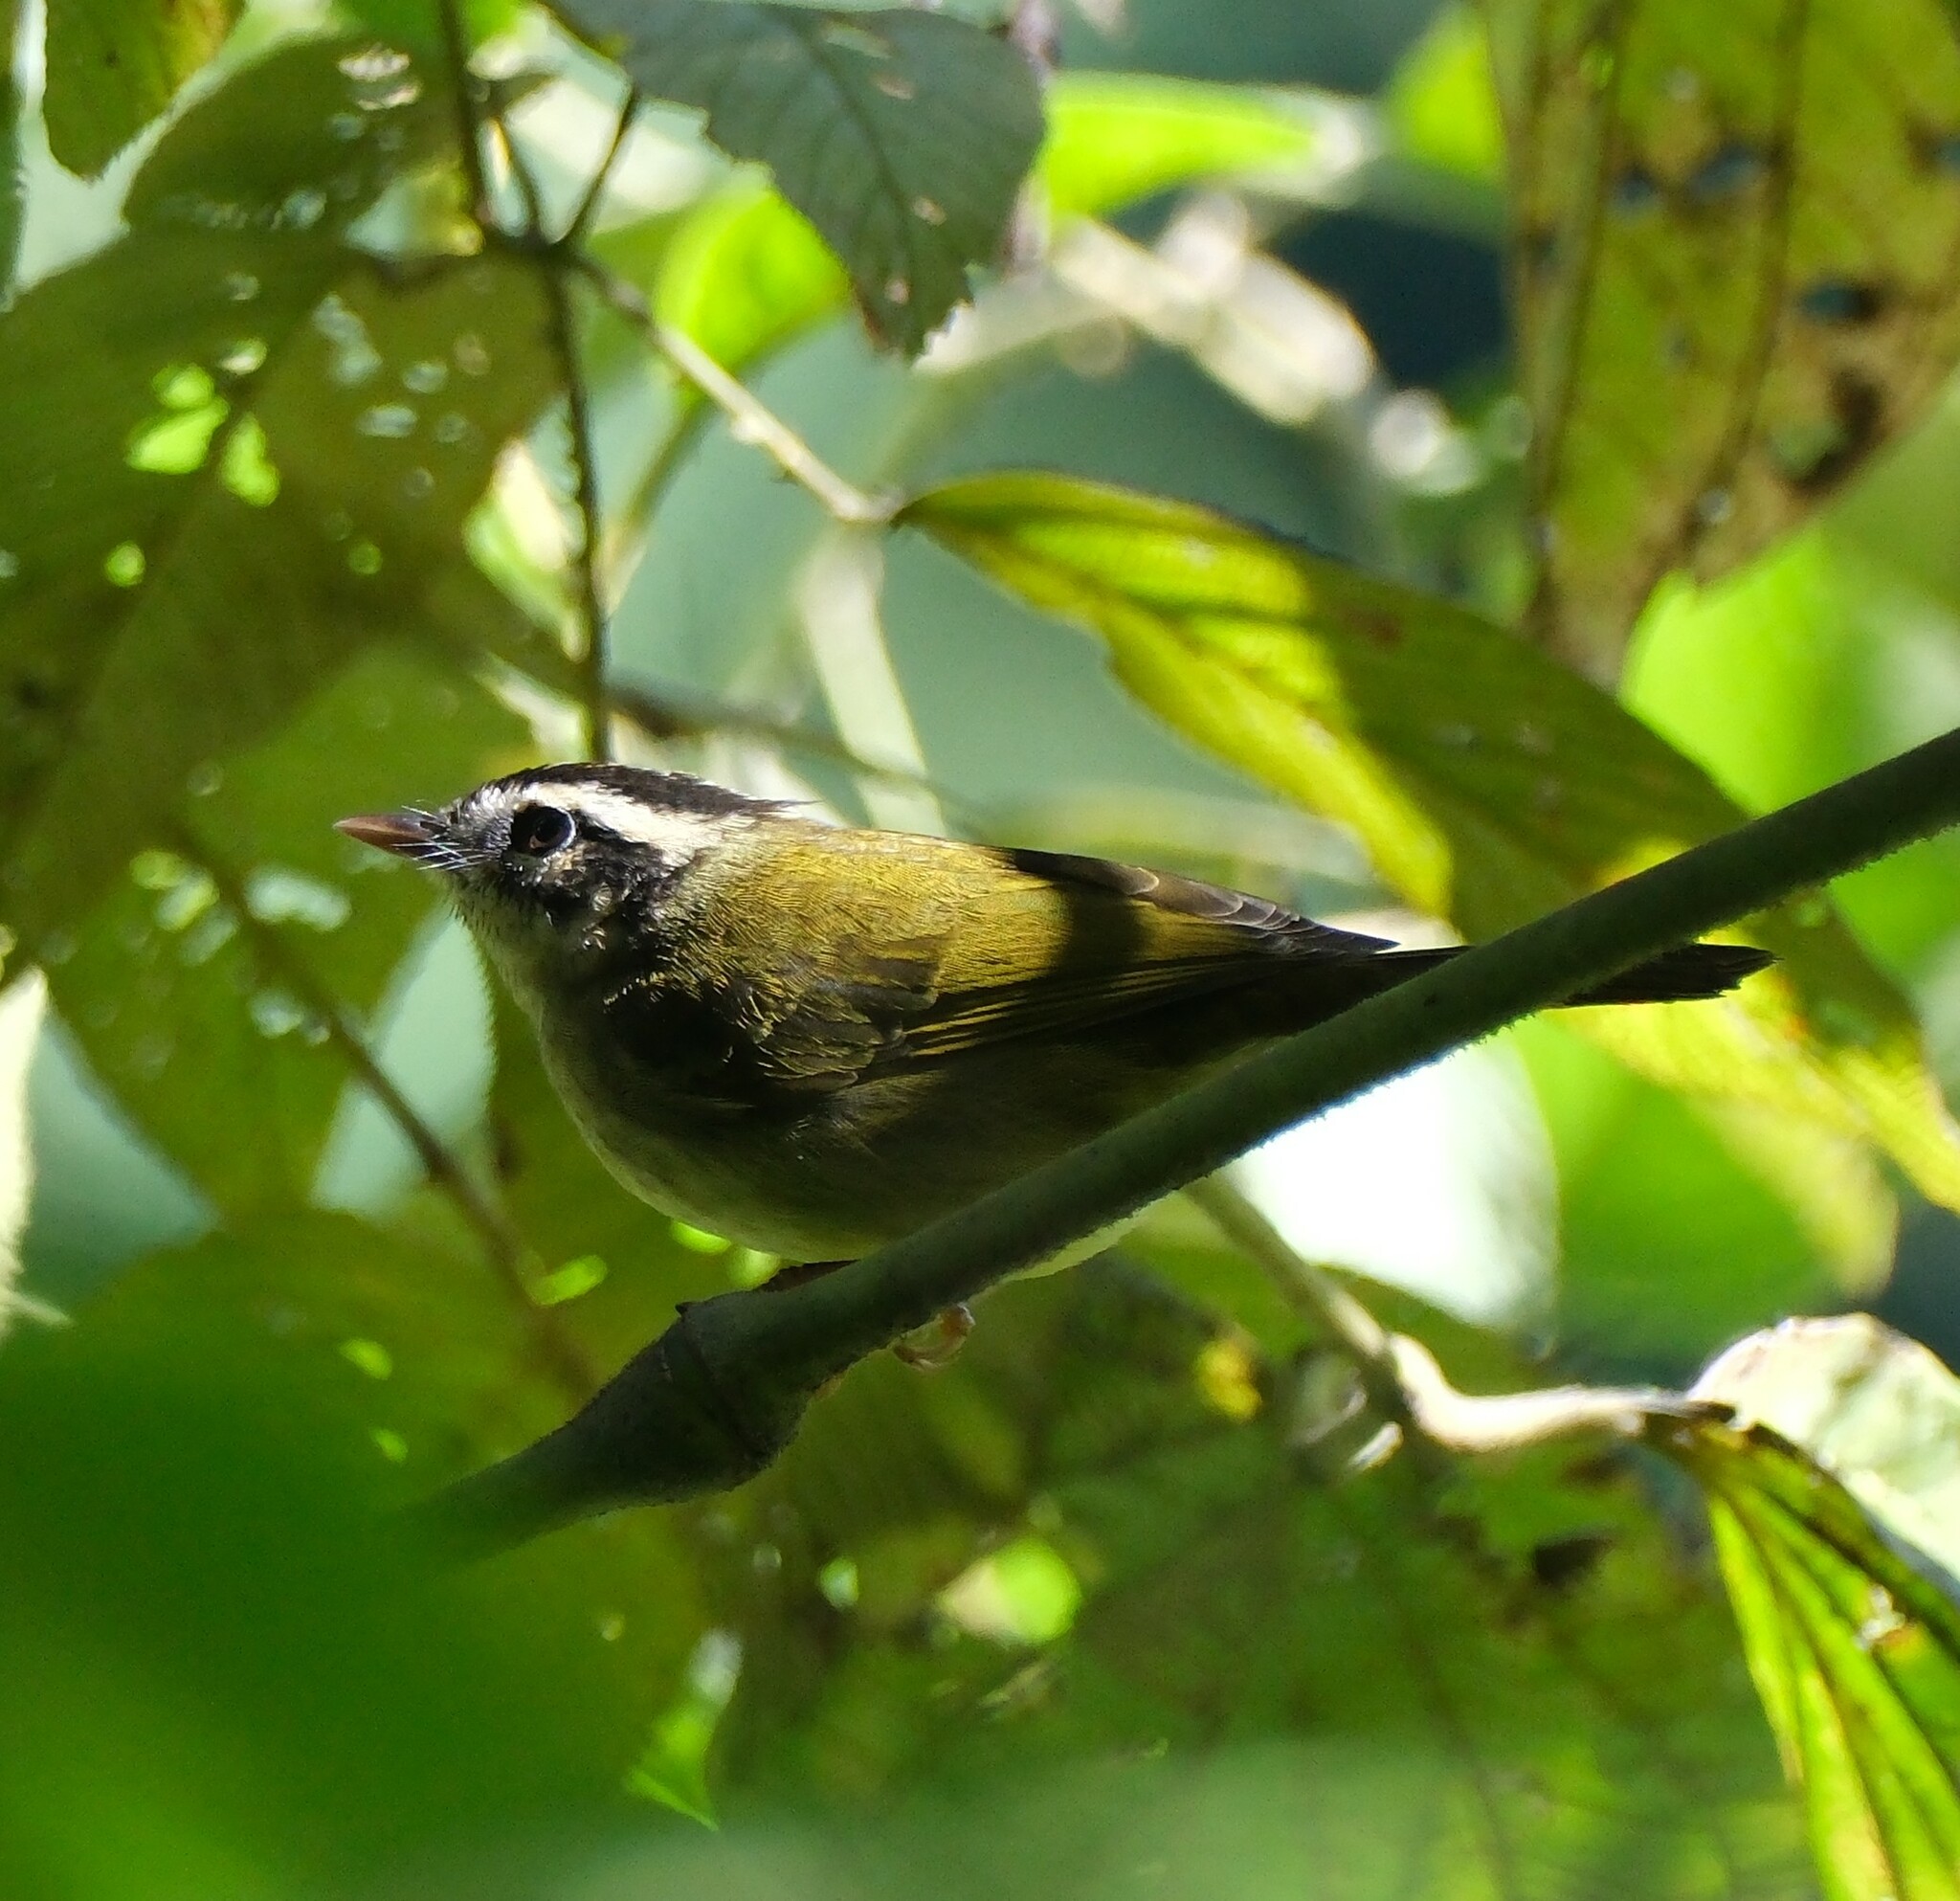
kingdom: Animalia
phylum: Chordata
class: Aves
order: Passeriformes
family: Parulidae
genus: Basileuterus
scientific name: Basileuterus tristriatus
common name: Three-striped warbler
